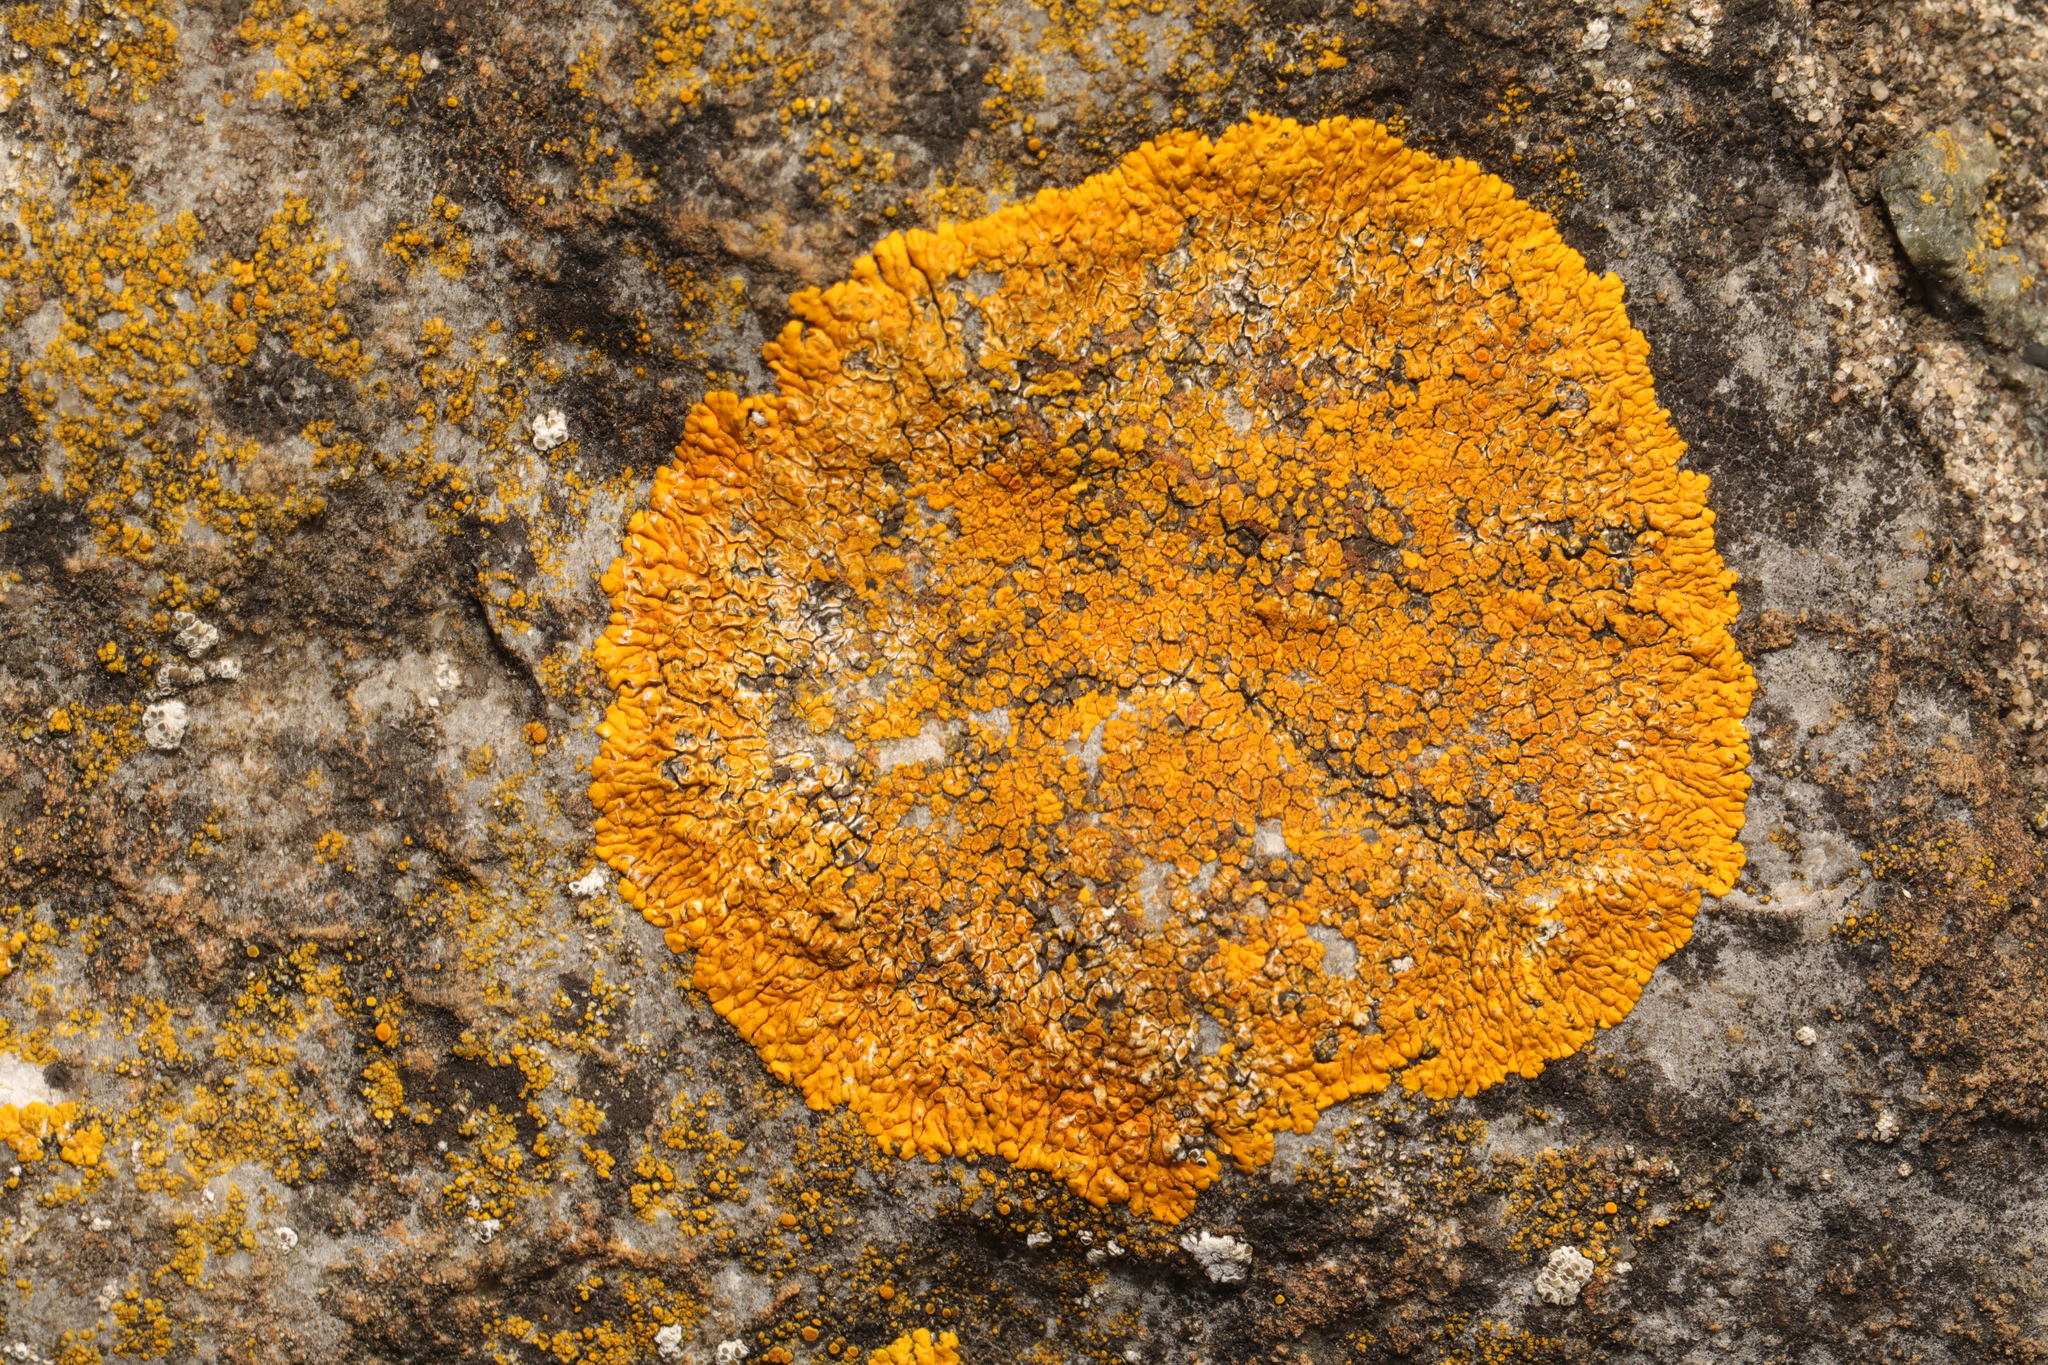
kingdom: Fungi
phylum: Ascomycota
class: Lecanoromycetes
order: Teloschistales
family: Teloschistaceae
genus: Variospora
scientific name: Variospora flavescens
